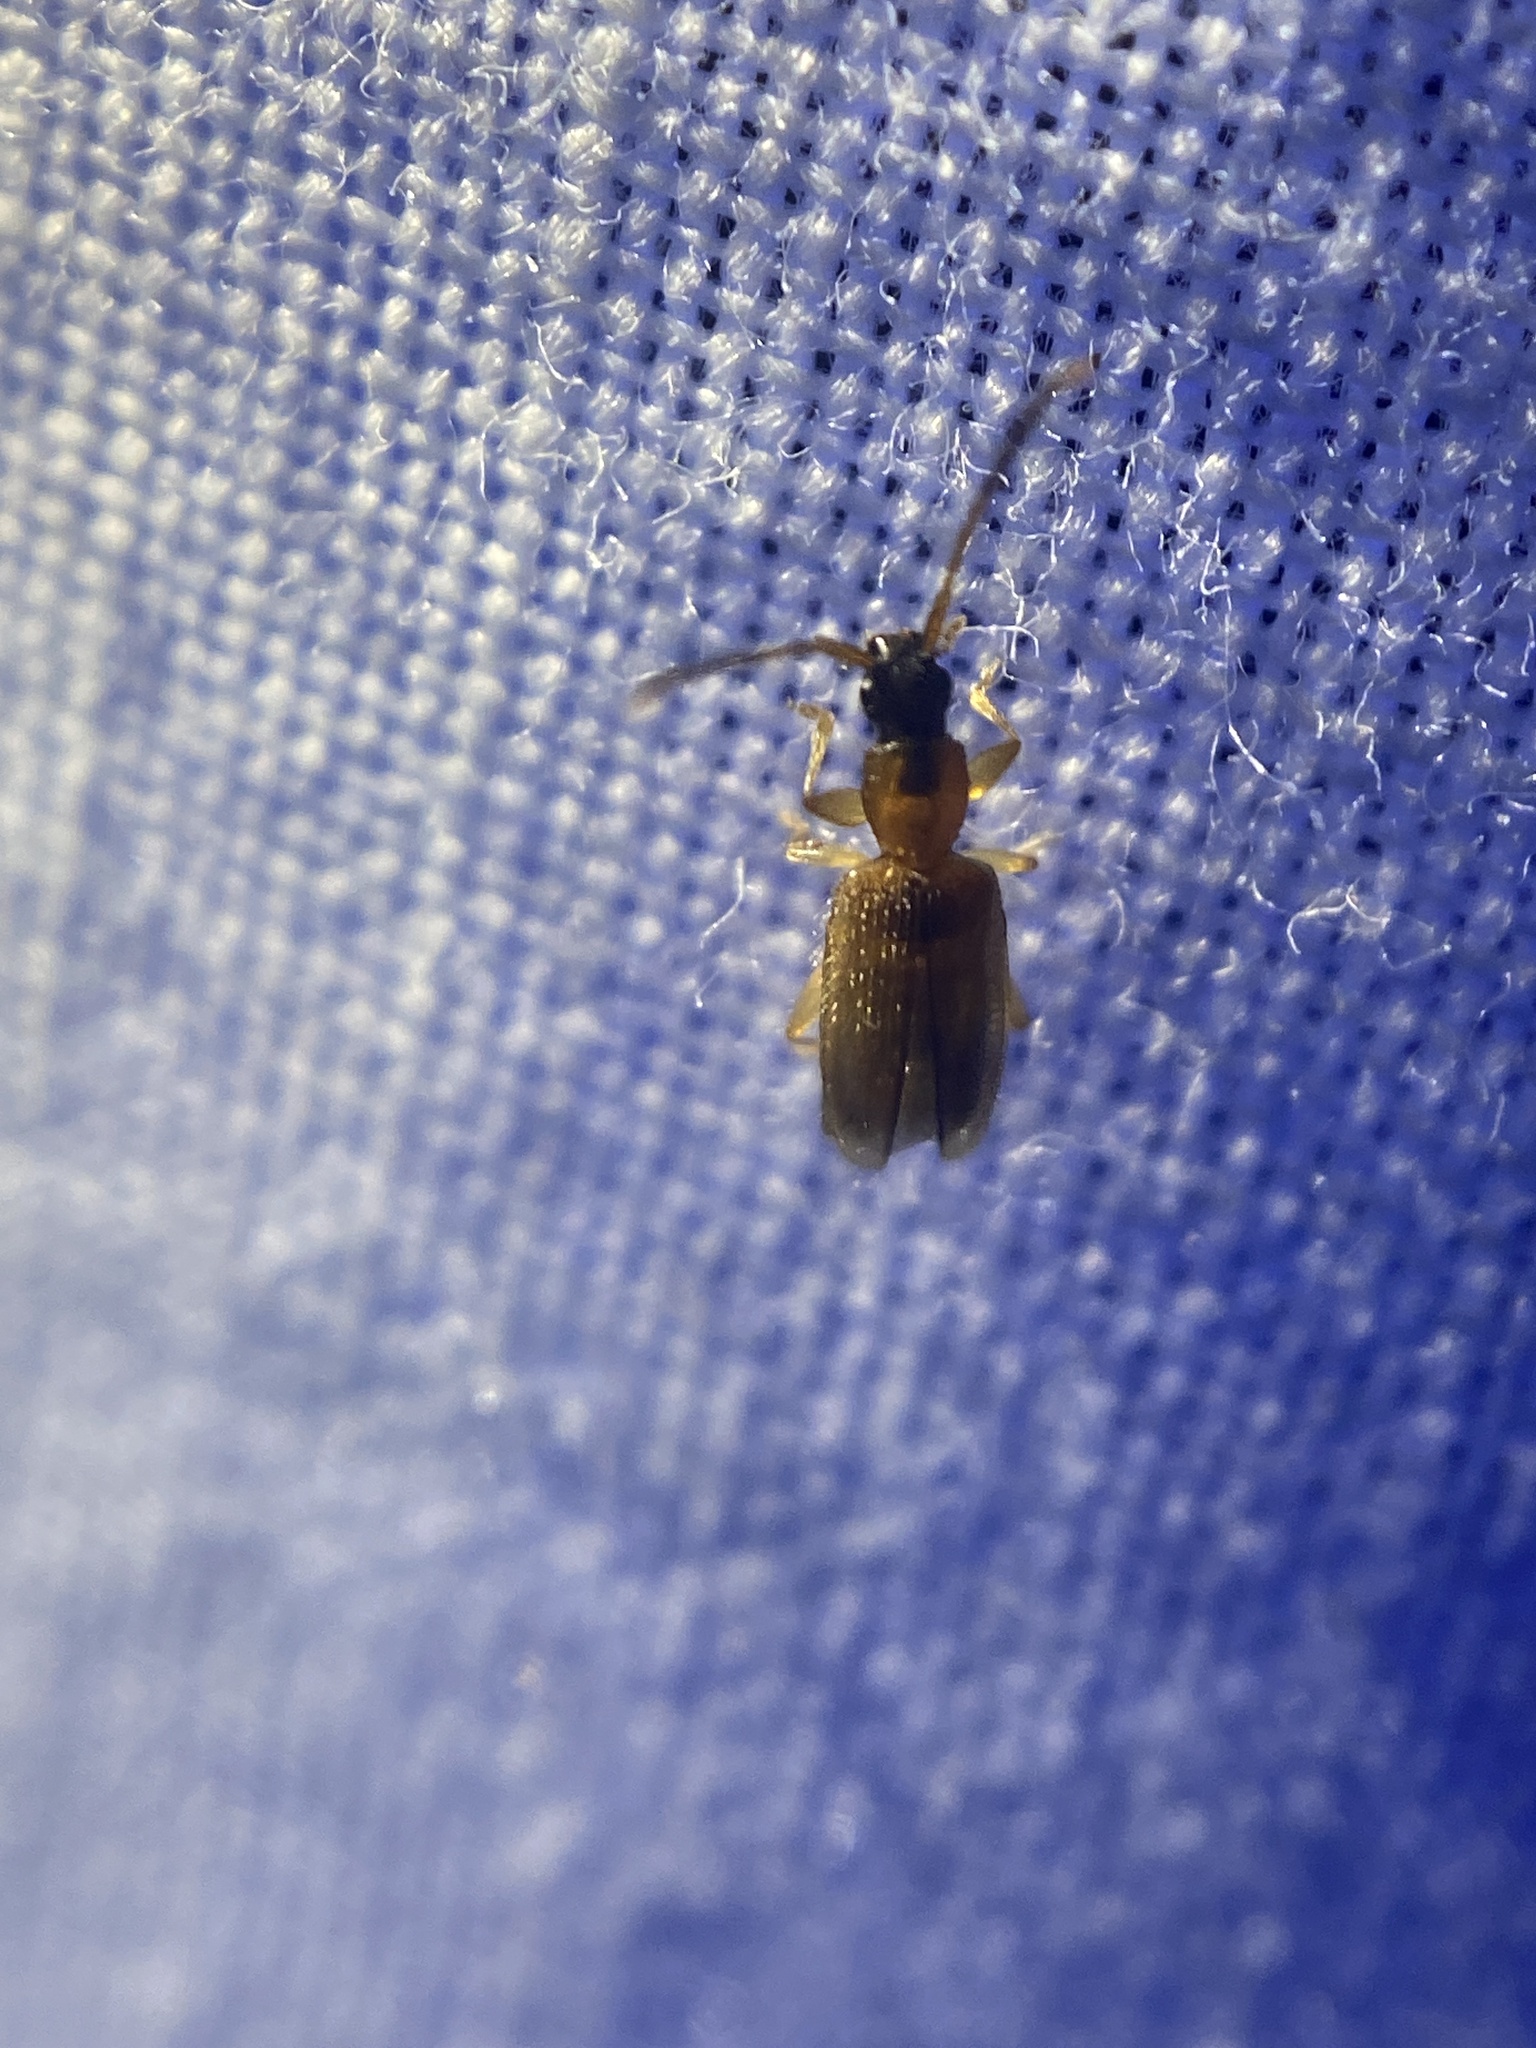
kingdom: Animalia
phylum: Arthropoda
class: Insecta
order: Coleoptera
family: Silvanidae
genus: Telephanus
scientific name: Telephanus velox
